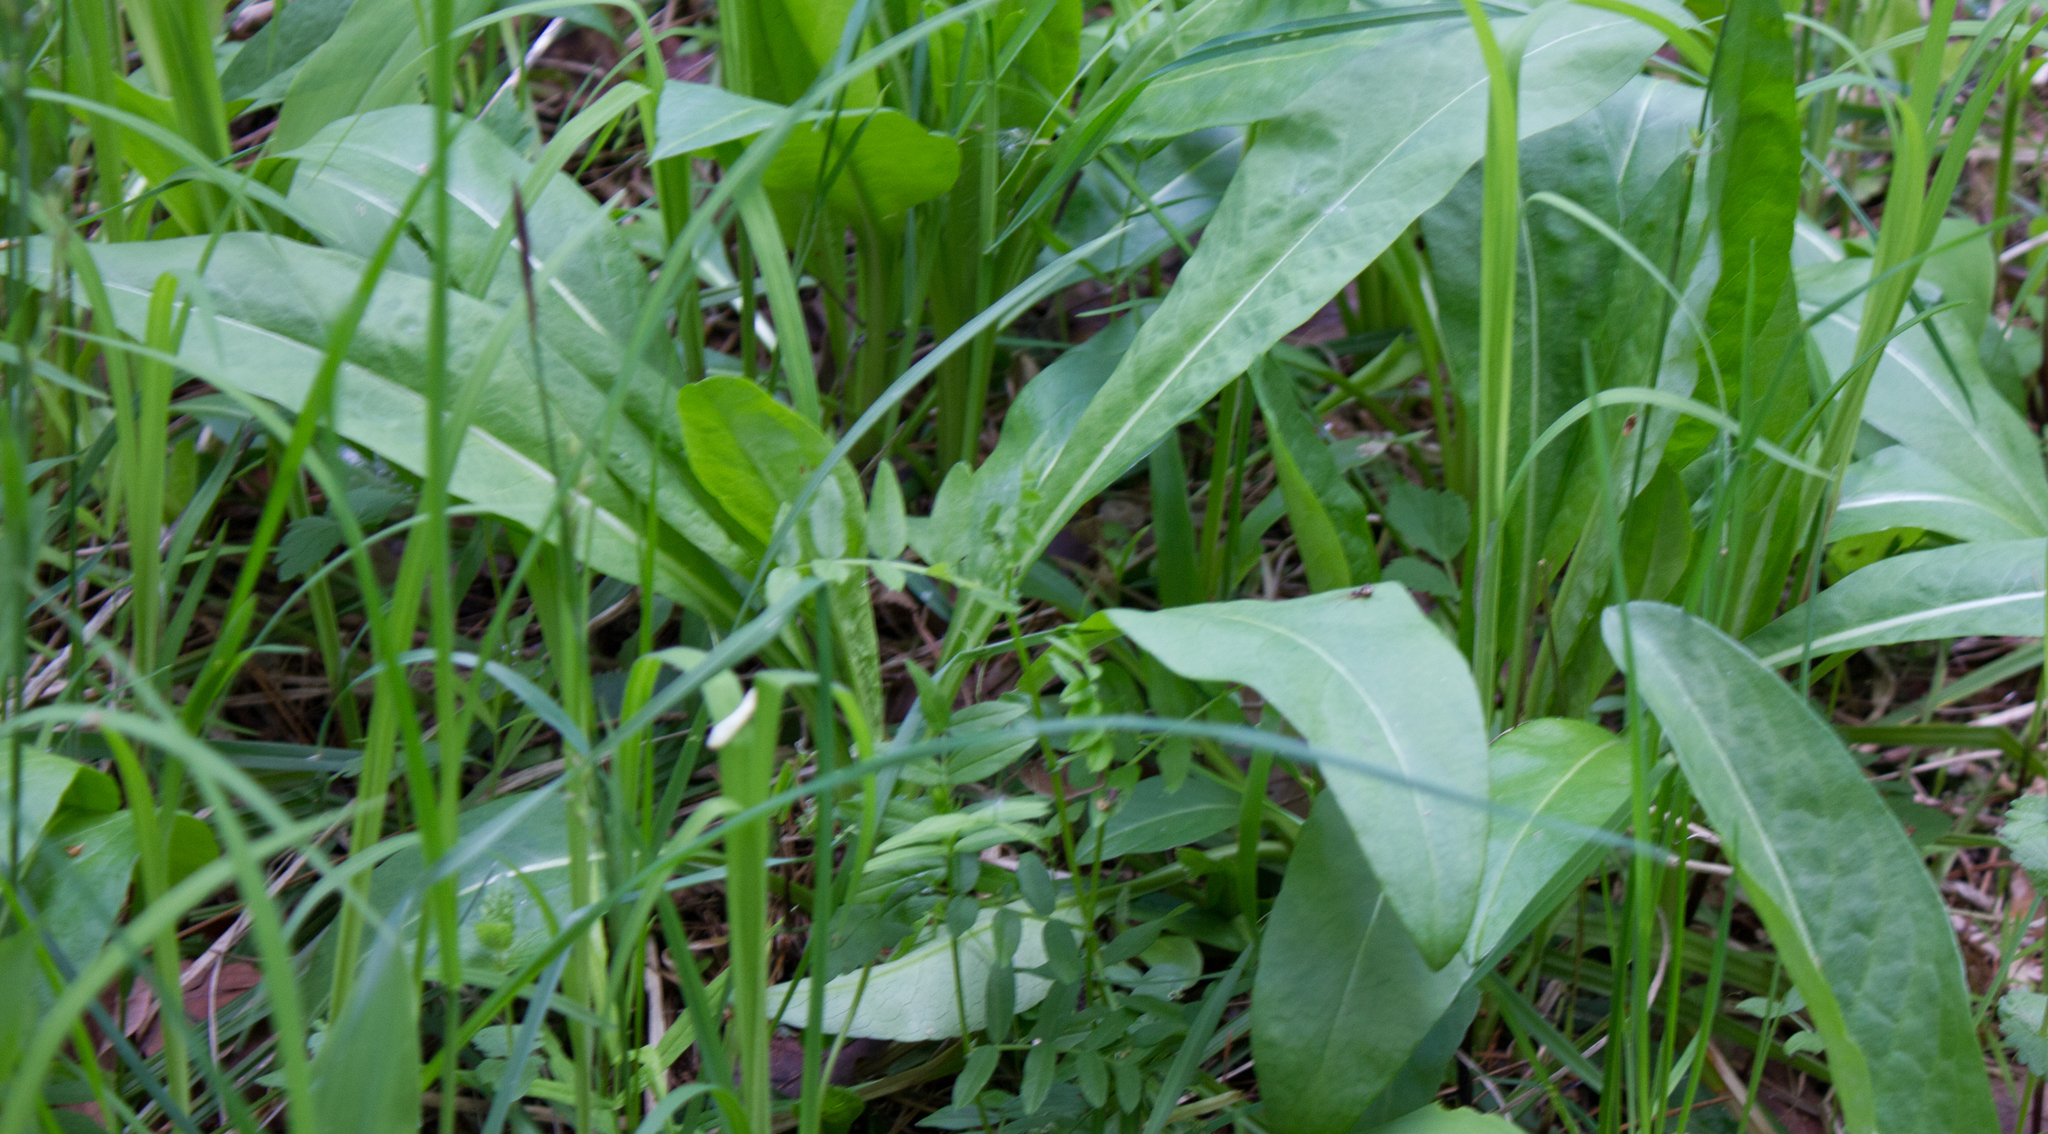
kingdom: Plantae
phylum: Tracheophyta
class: Magnoliopsida
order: Dipsacales
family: Caprifoliaceae
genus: Succisa
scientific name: Succisa pratensis
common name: Devil's-bit
